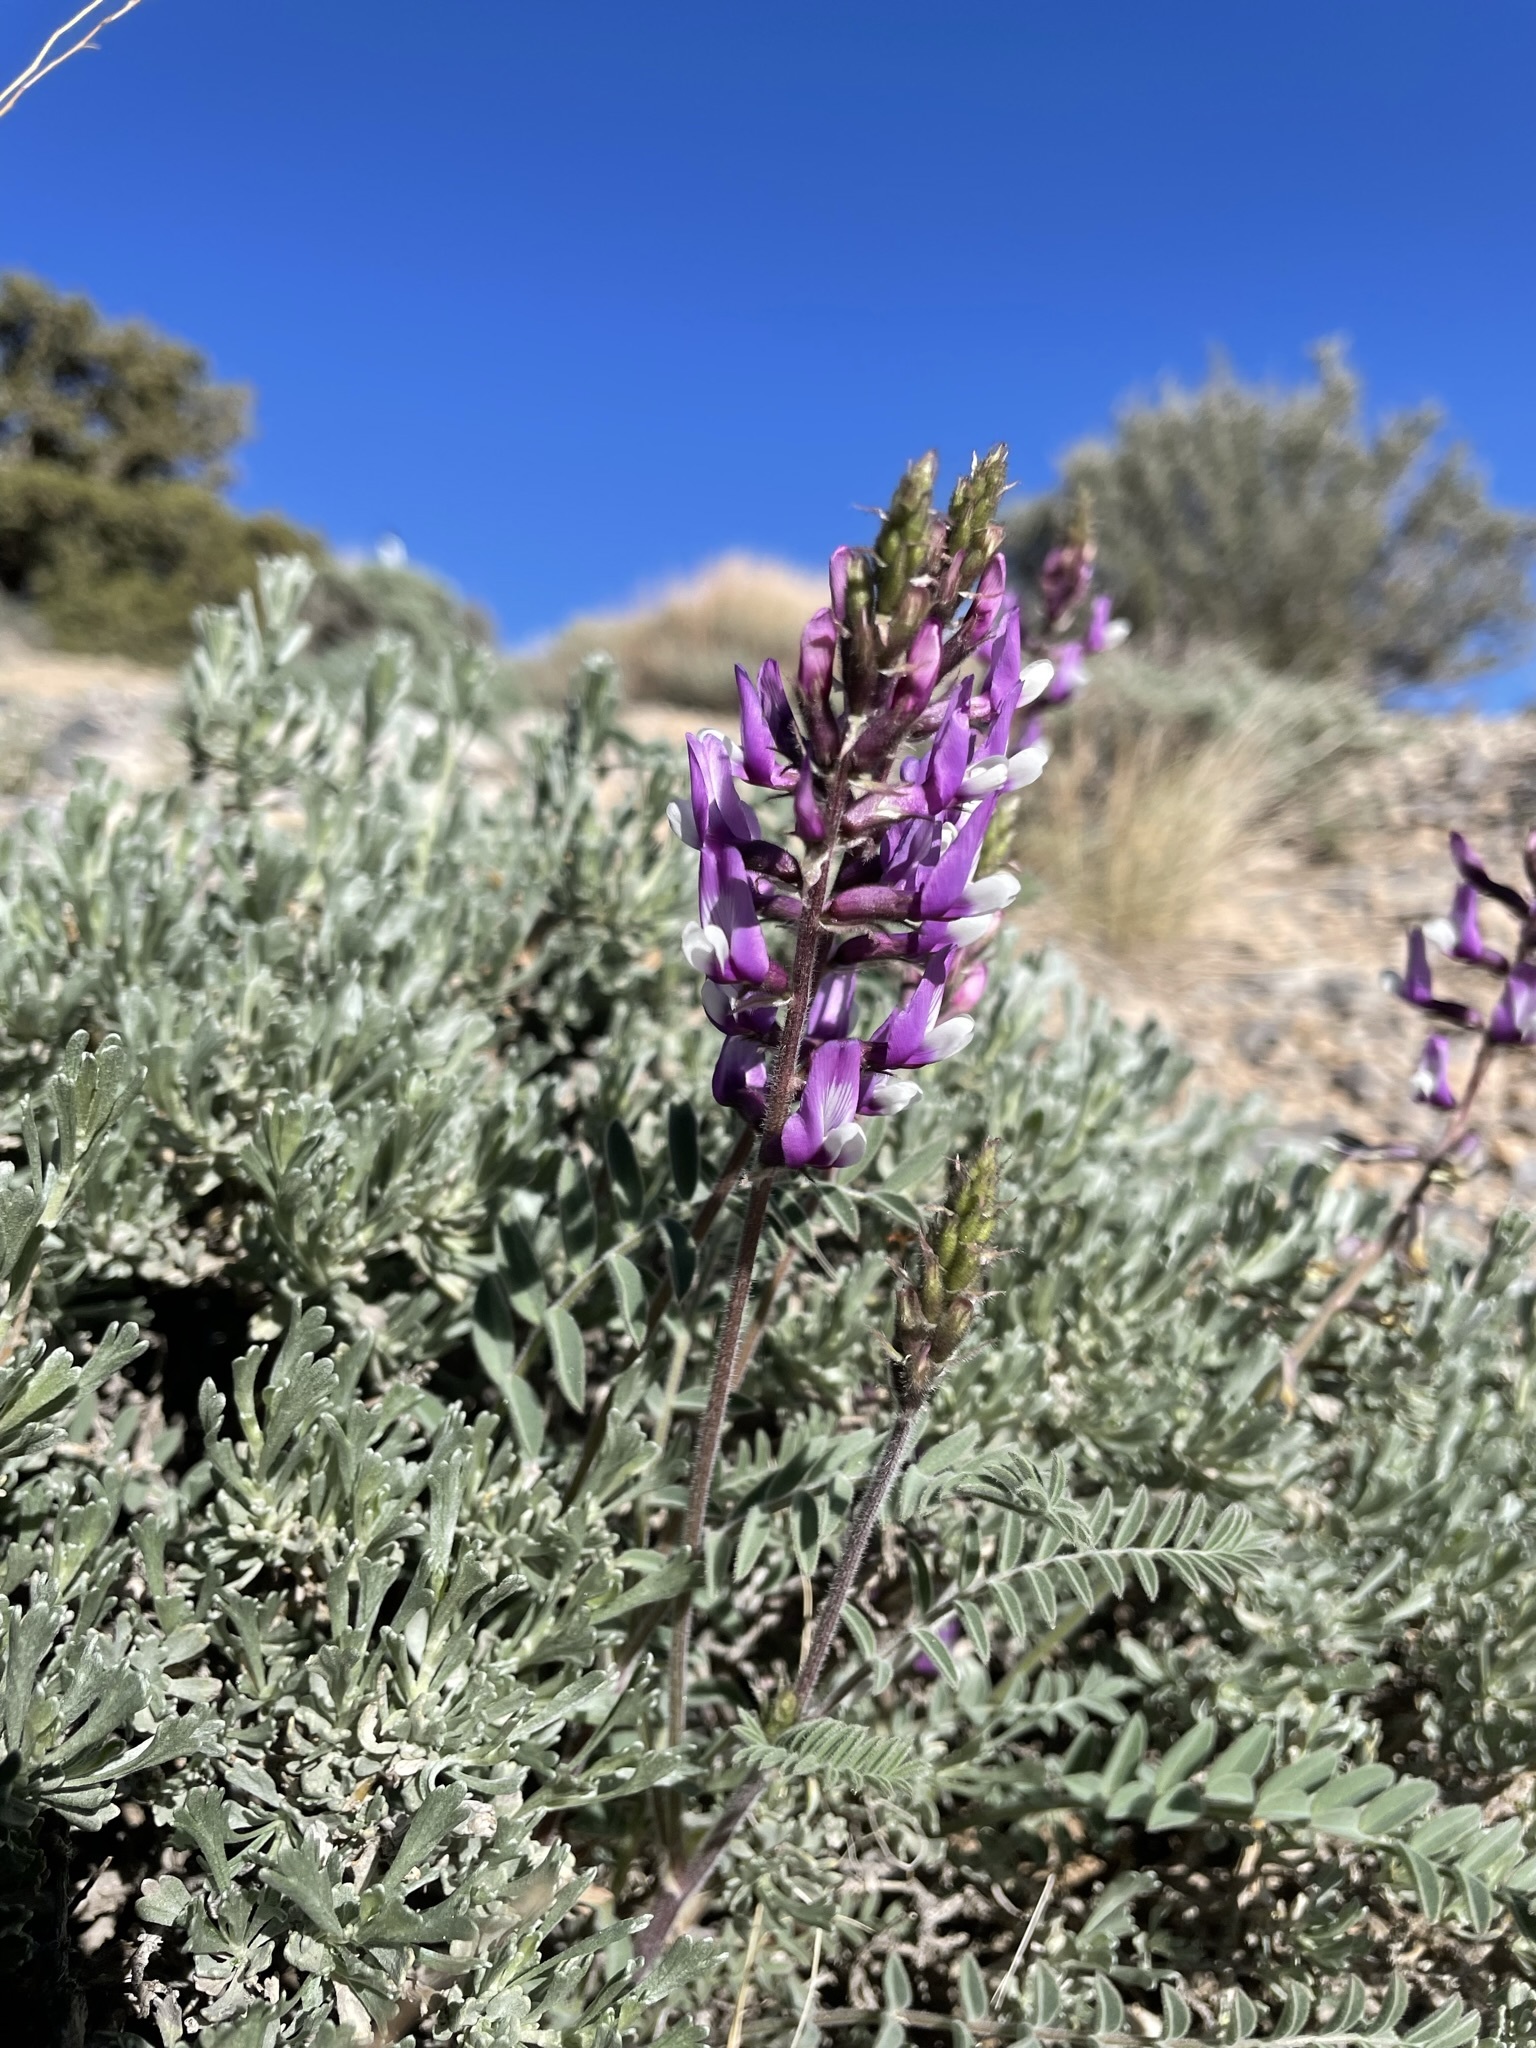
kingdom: Plantae
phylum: Tracheophyta
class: Magnoliopsida
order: Fabales
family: Fabaceae
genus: Astragalus
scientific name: Astragalus minthorniae
